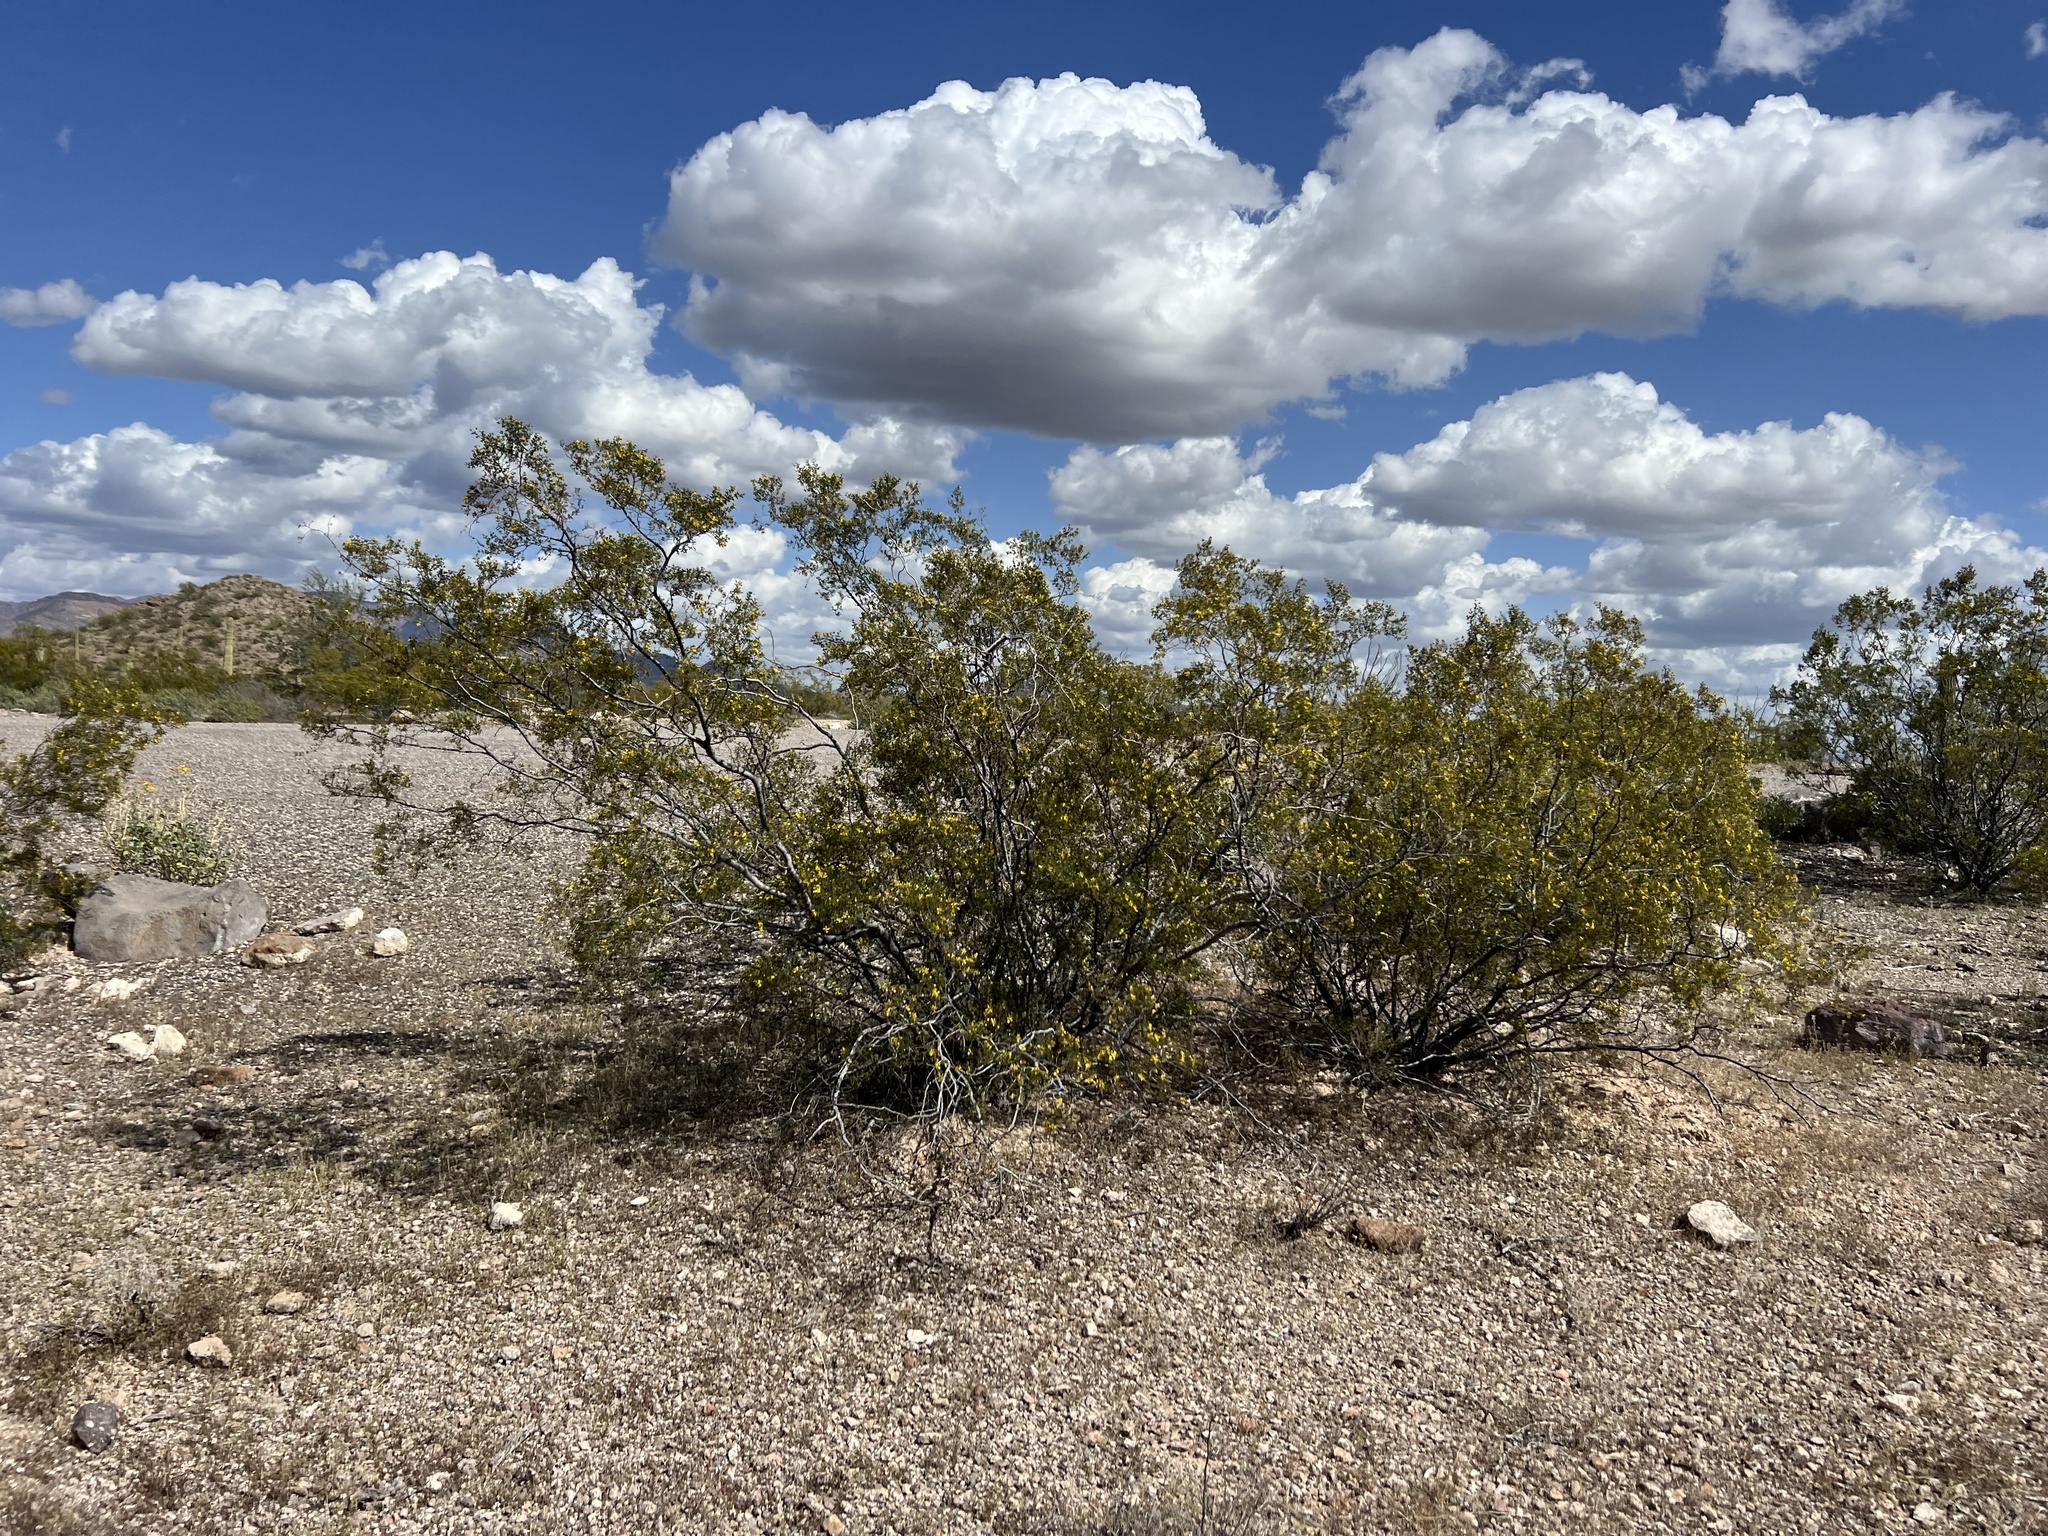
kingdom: Plantae
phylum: Tracheophyta
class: Magnoliopsida
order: Zygophyllales
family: Zygophyllaceae
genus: Larrea
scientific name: Larrea tridentata
